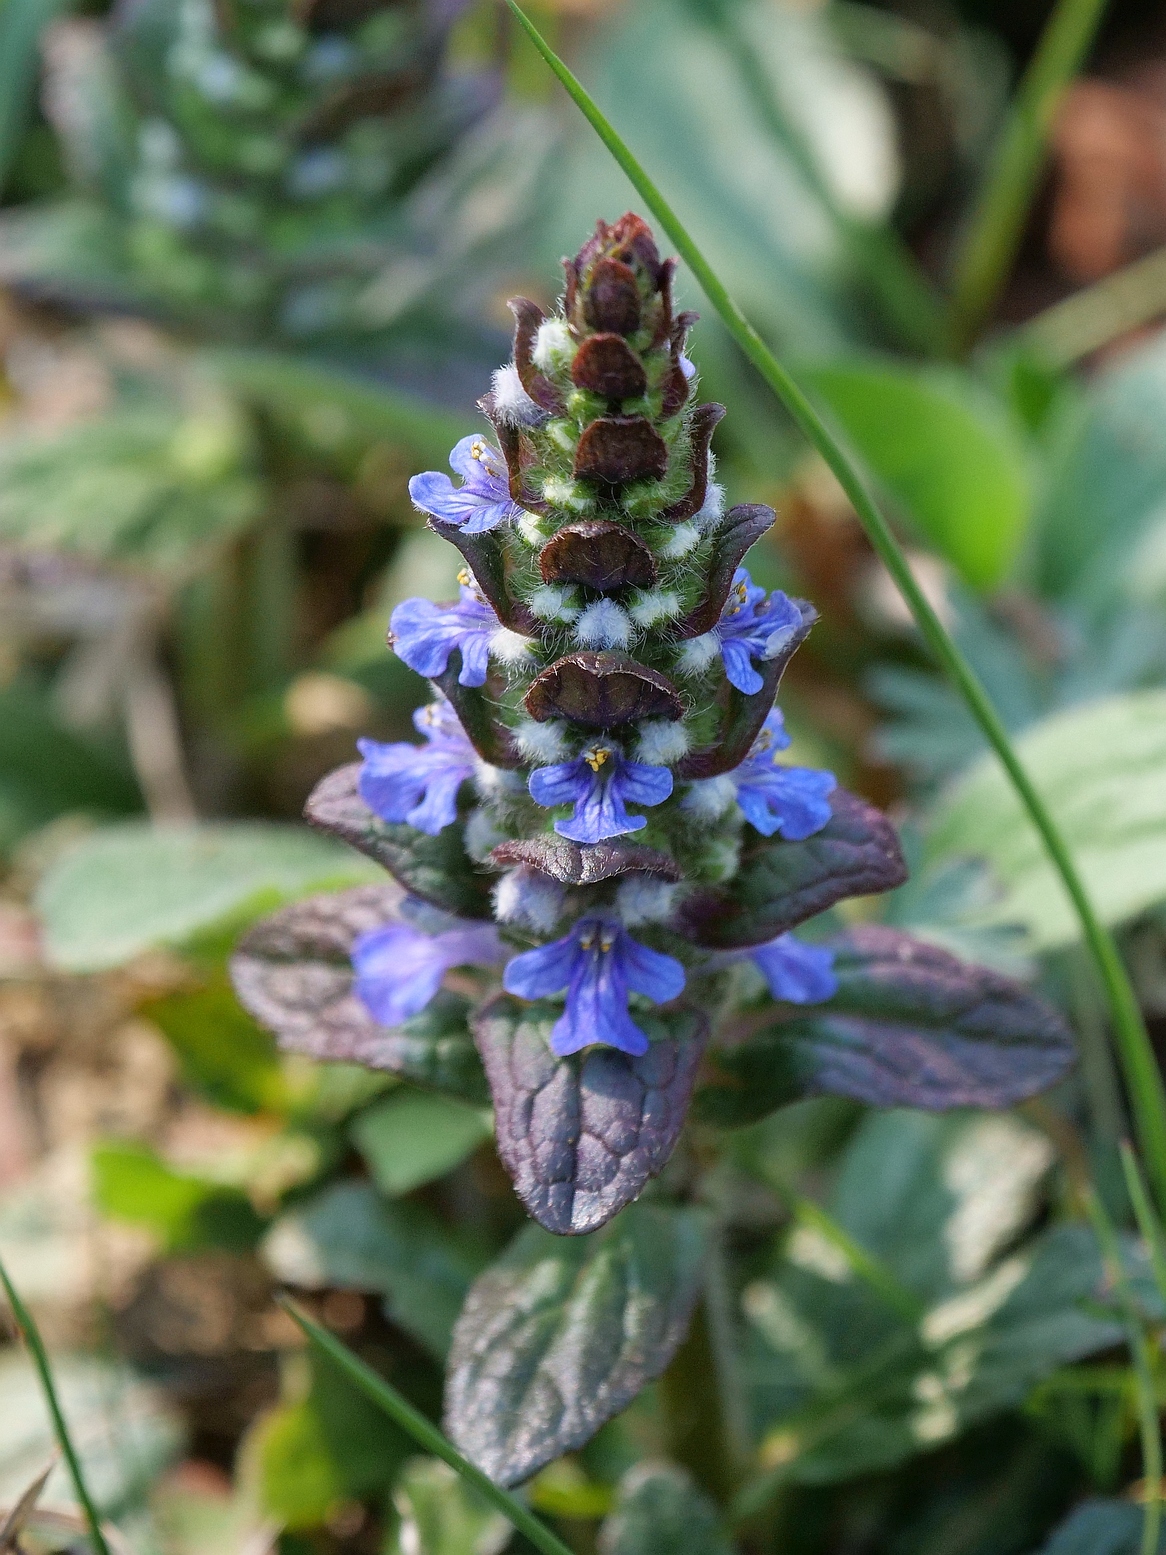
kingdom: Plantae
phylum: Tracheophyta
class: Magnoliopsida
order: Lamiales
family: Lamiaceae
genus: Ajuga
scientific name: Ajuga reptans
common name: Bugle
